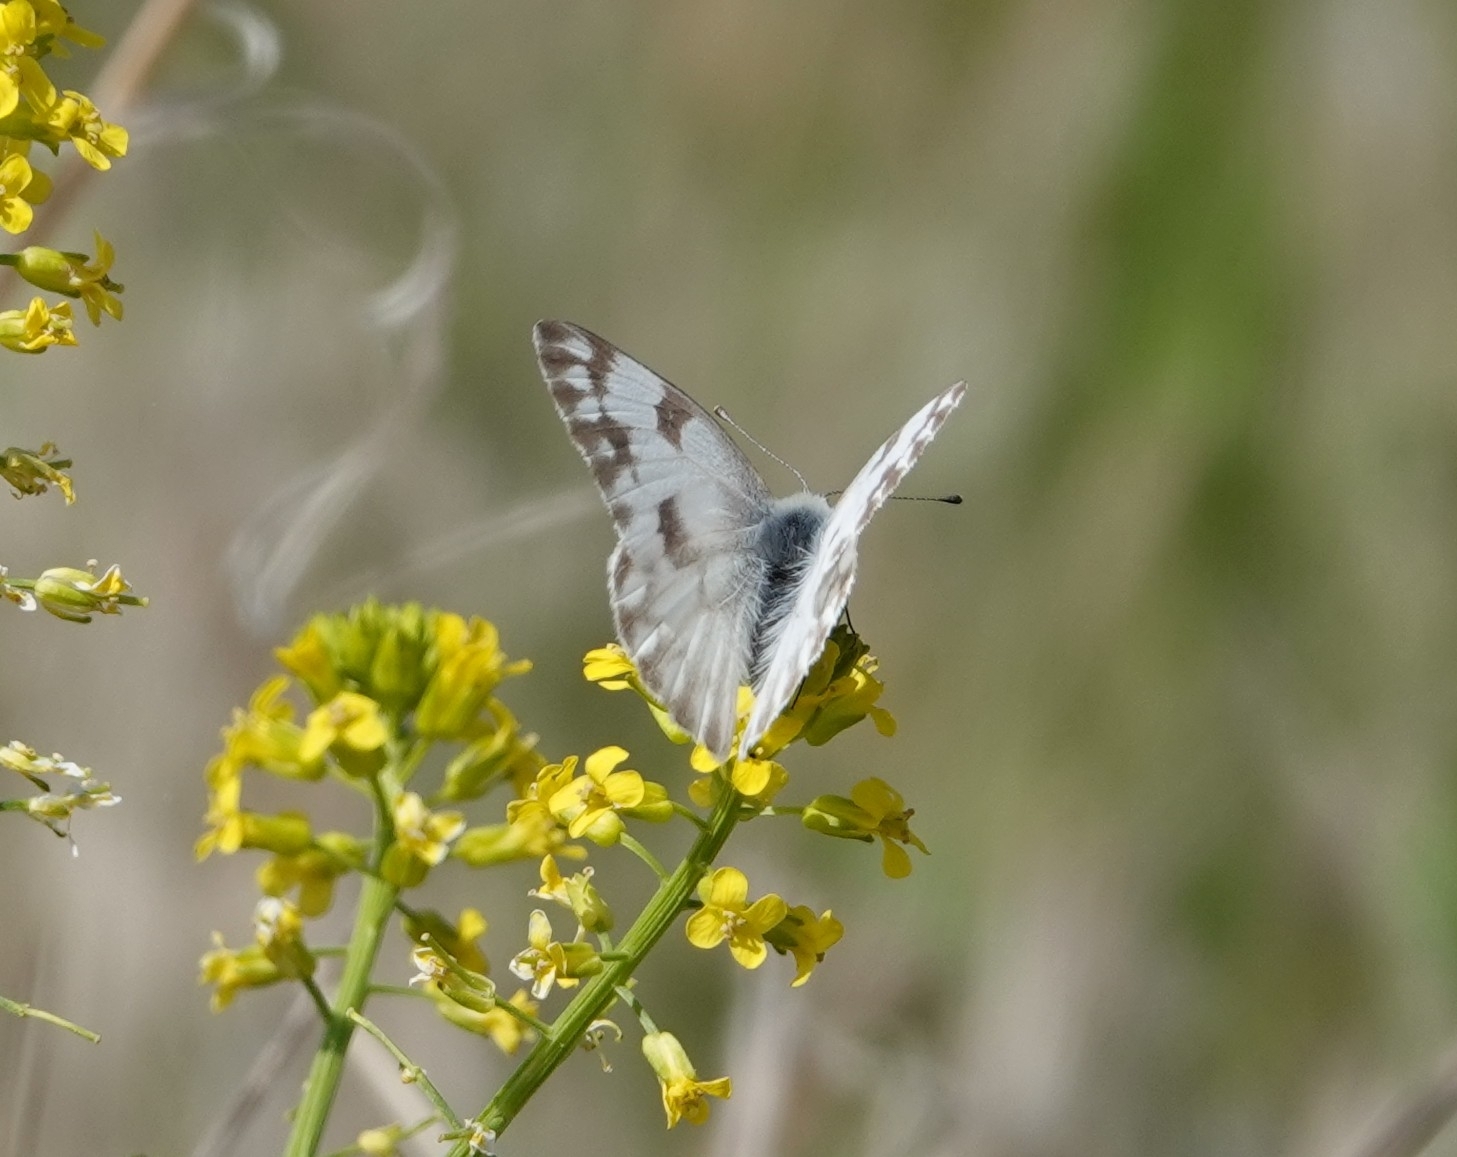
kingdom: Animalia
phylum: Arthropoda
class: Insecta
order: Lepidoptera
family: Pieridae
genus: Pontia
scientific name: Pontia protodice
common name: Checkered white
